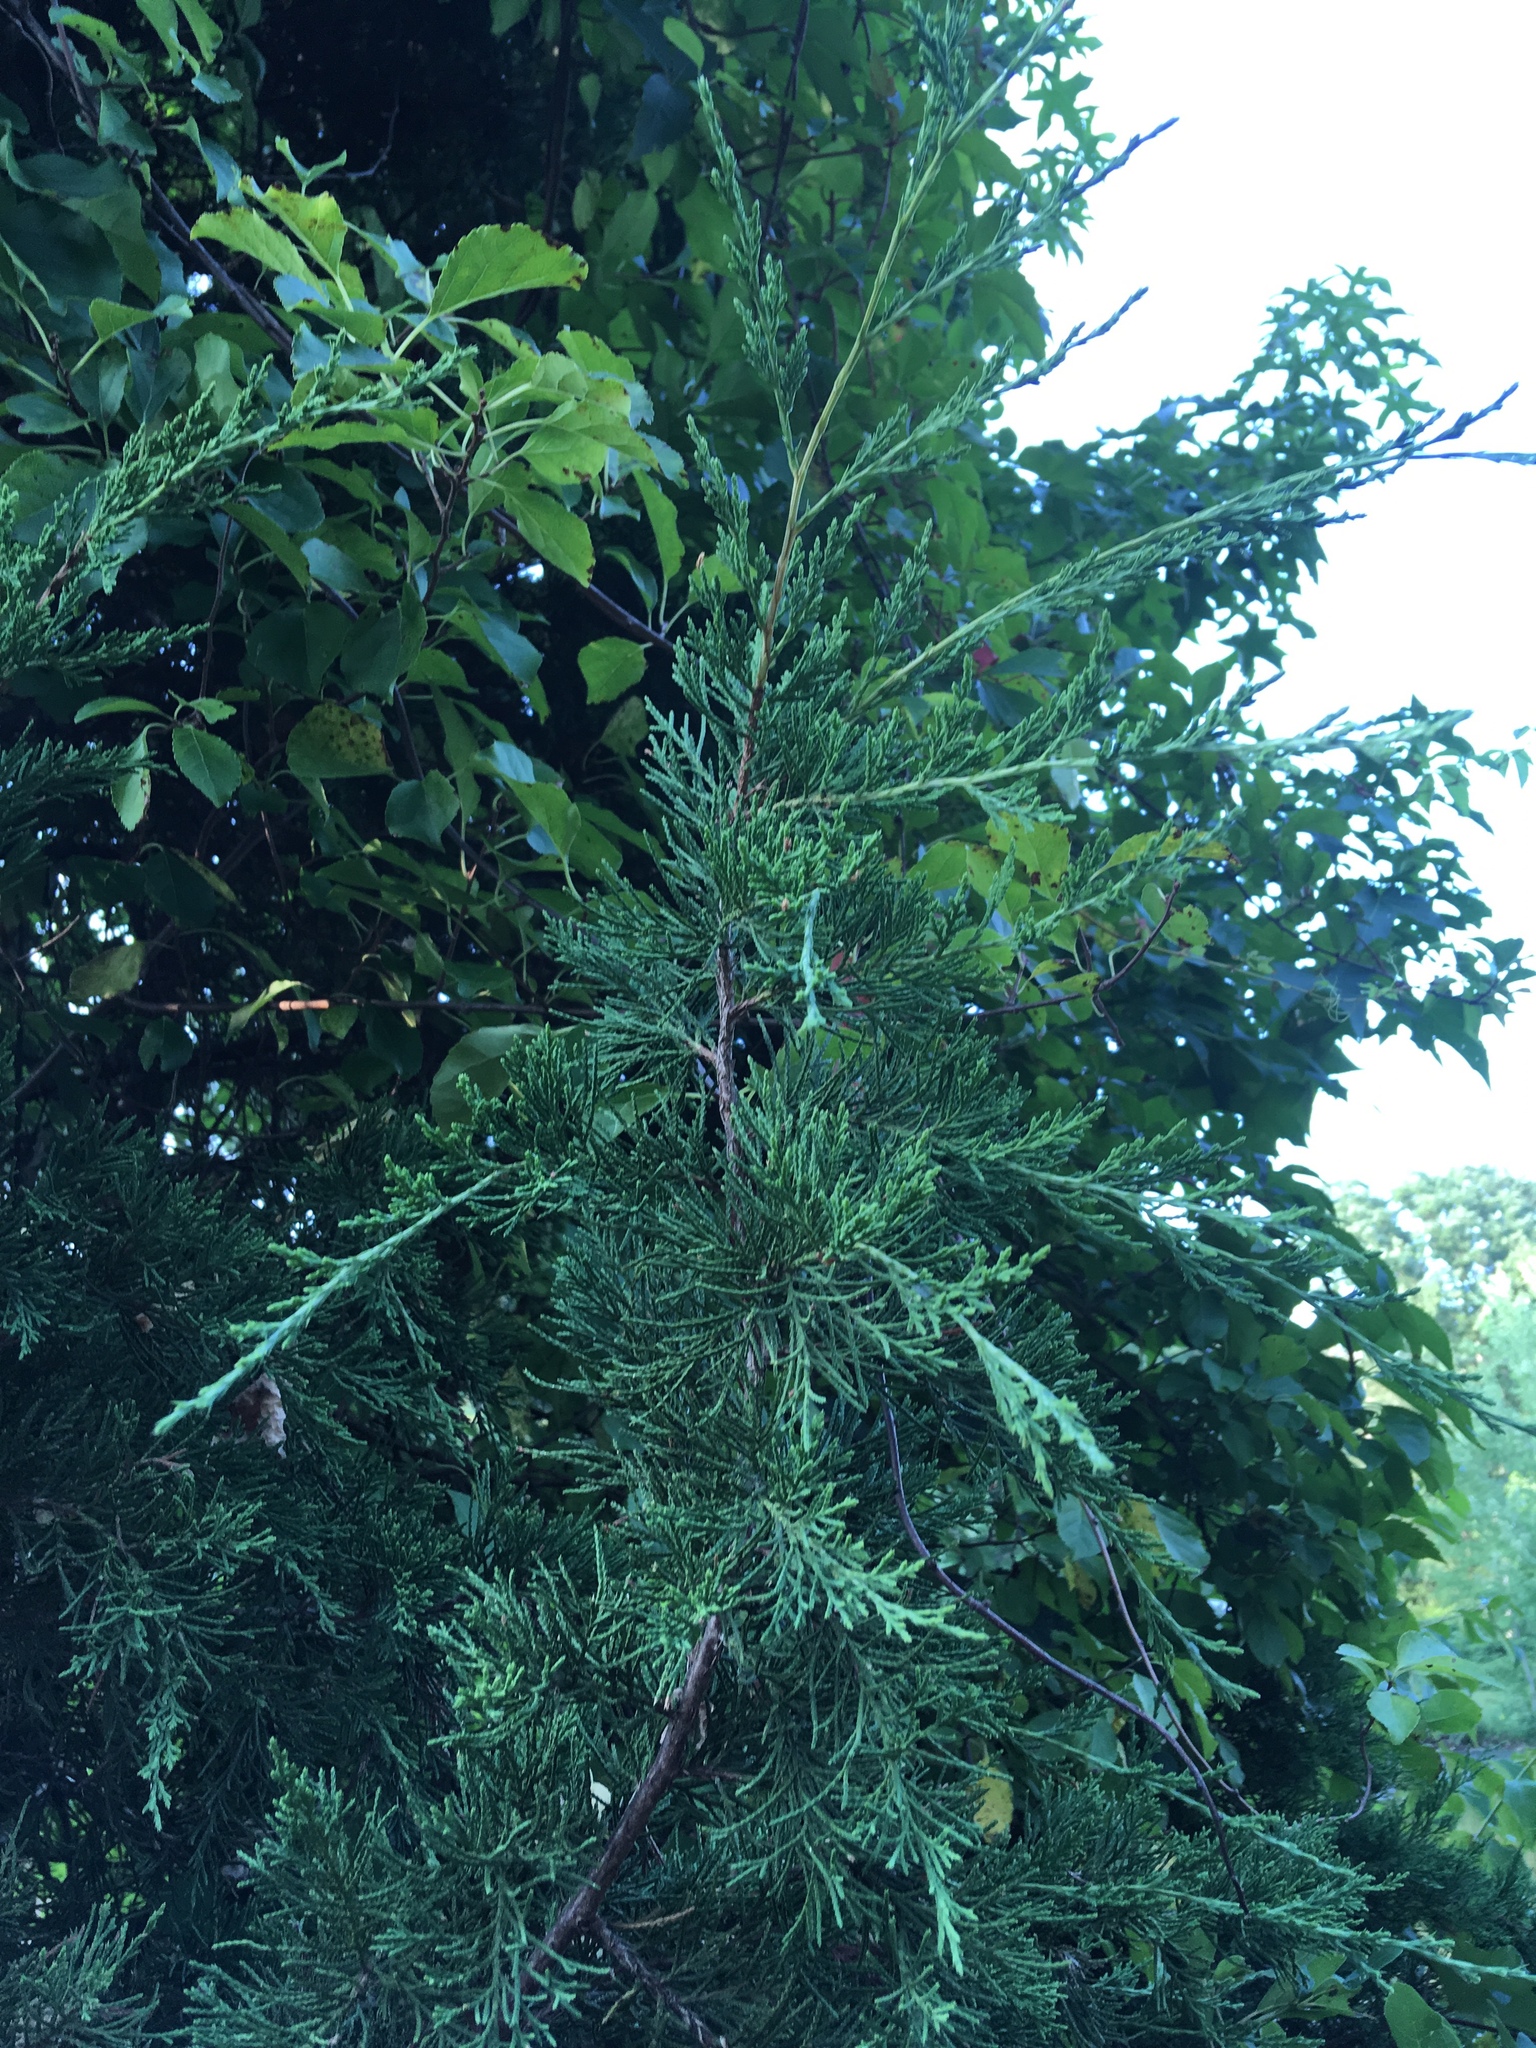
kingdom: Plantae
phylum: Tracheophyta
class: Pinopsida
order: Pinales
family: Cupressaceae
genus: Juniperus
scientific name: Juniperus virginiana
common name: Red juniper
